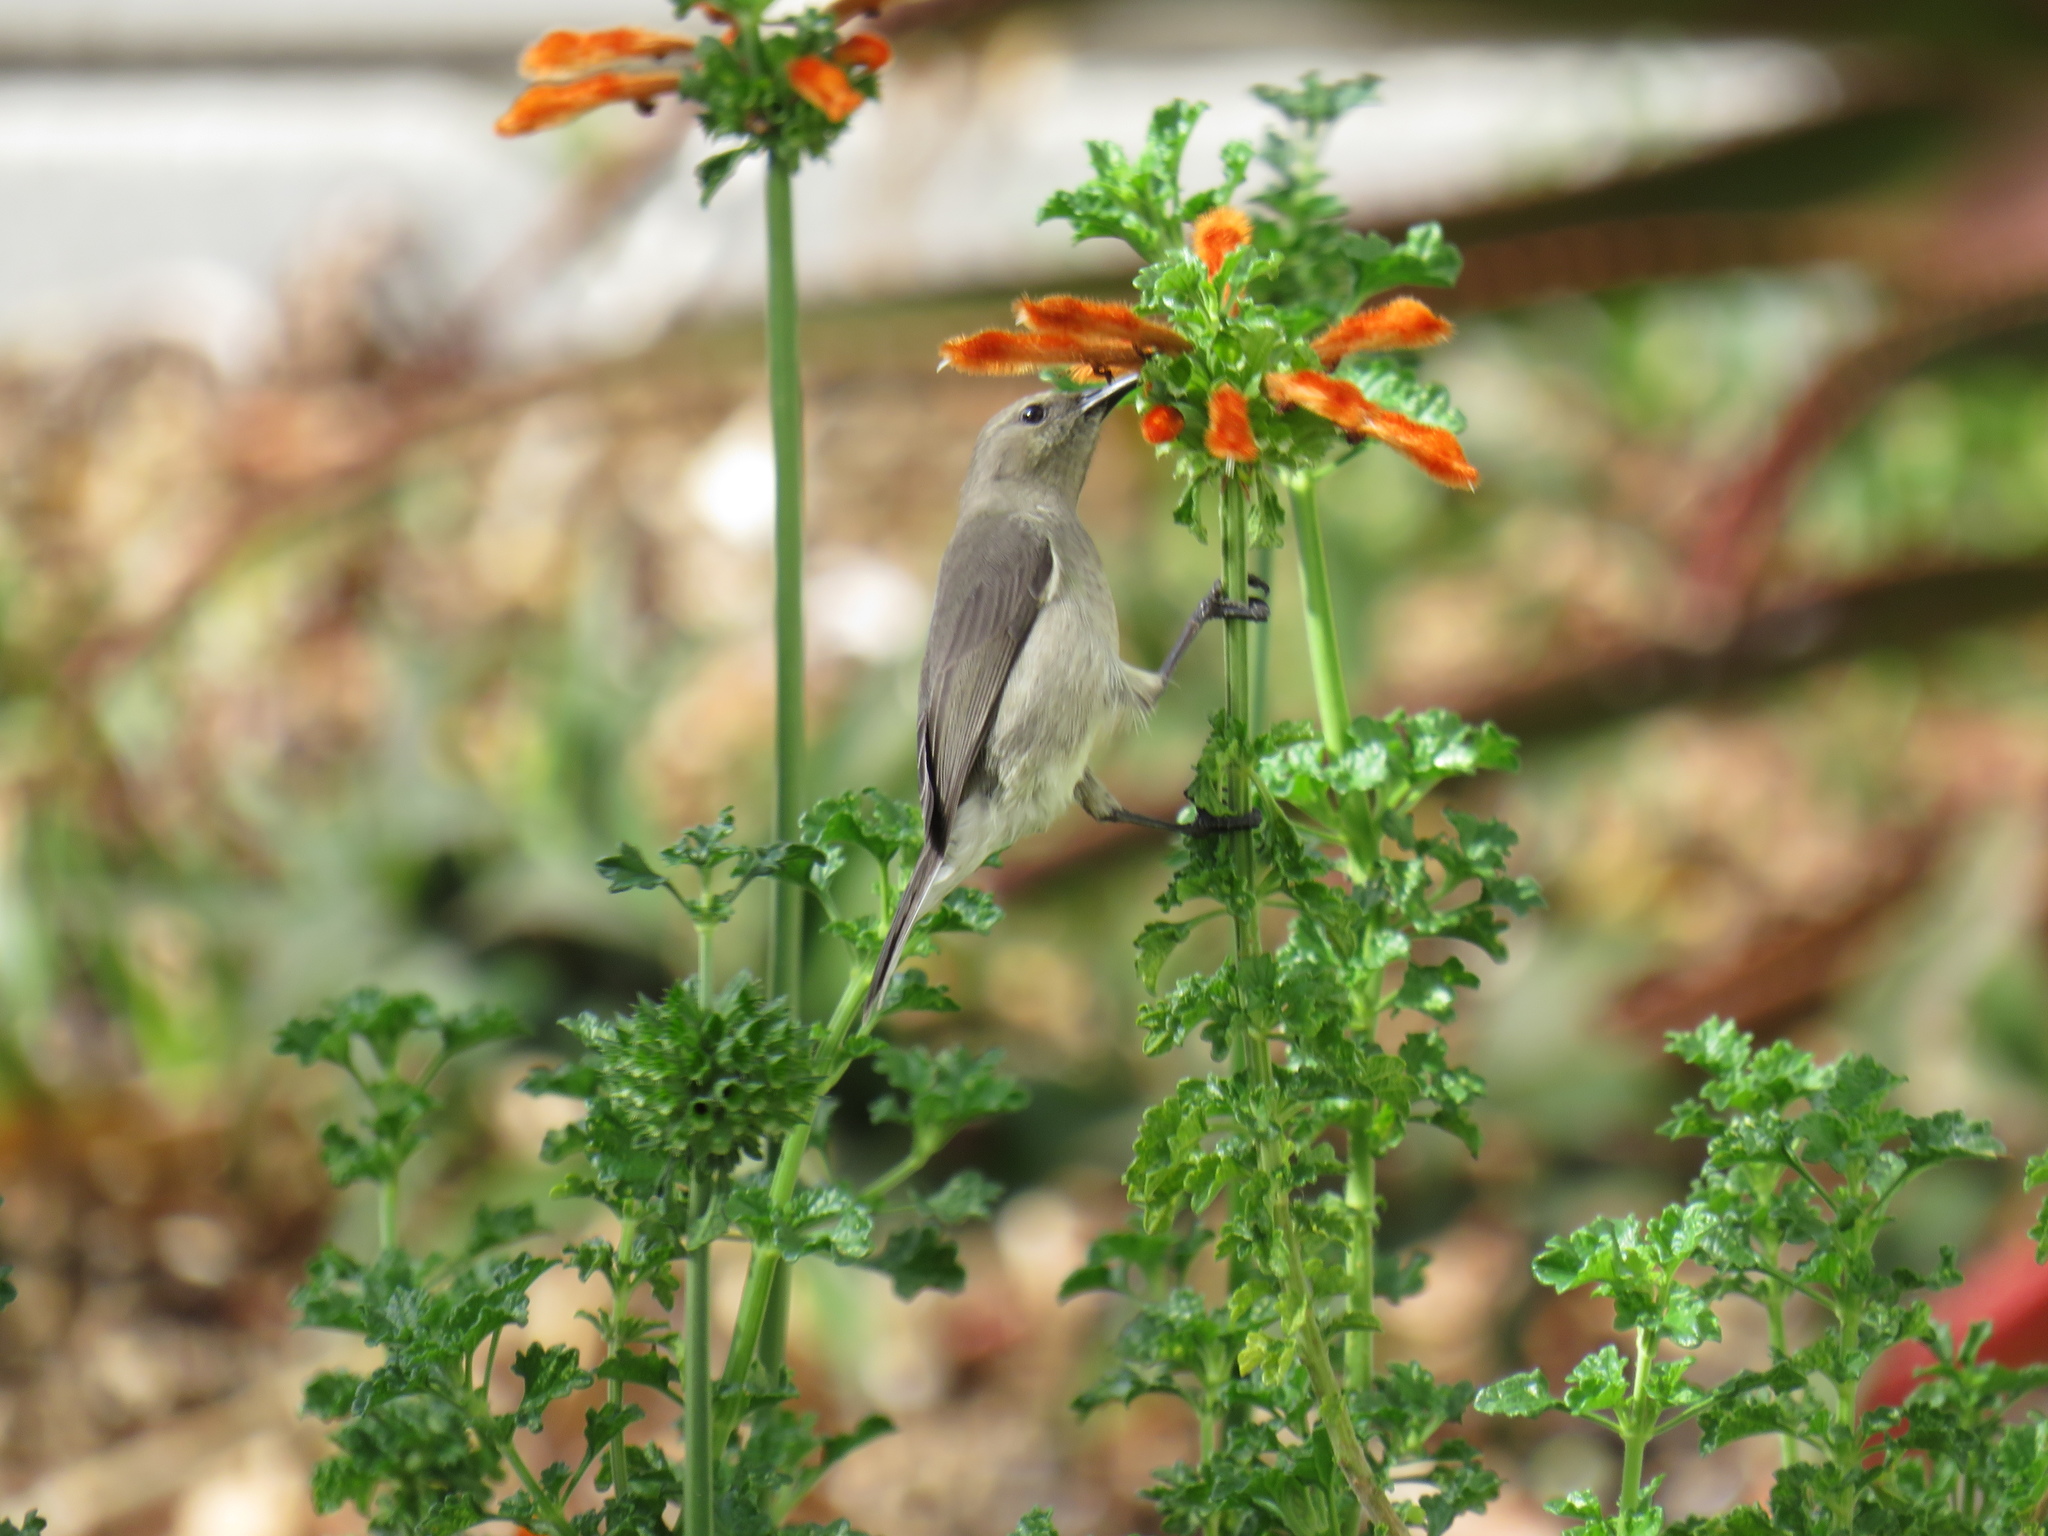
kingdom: Animalia
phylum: Chordata
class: Aves
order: Passeriformes
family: Nectariniidae
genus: Cinnyris
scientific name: Cinnyris chalybeus
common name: Southern double-collared sunbird
